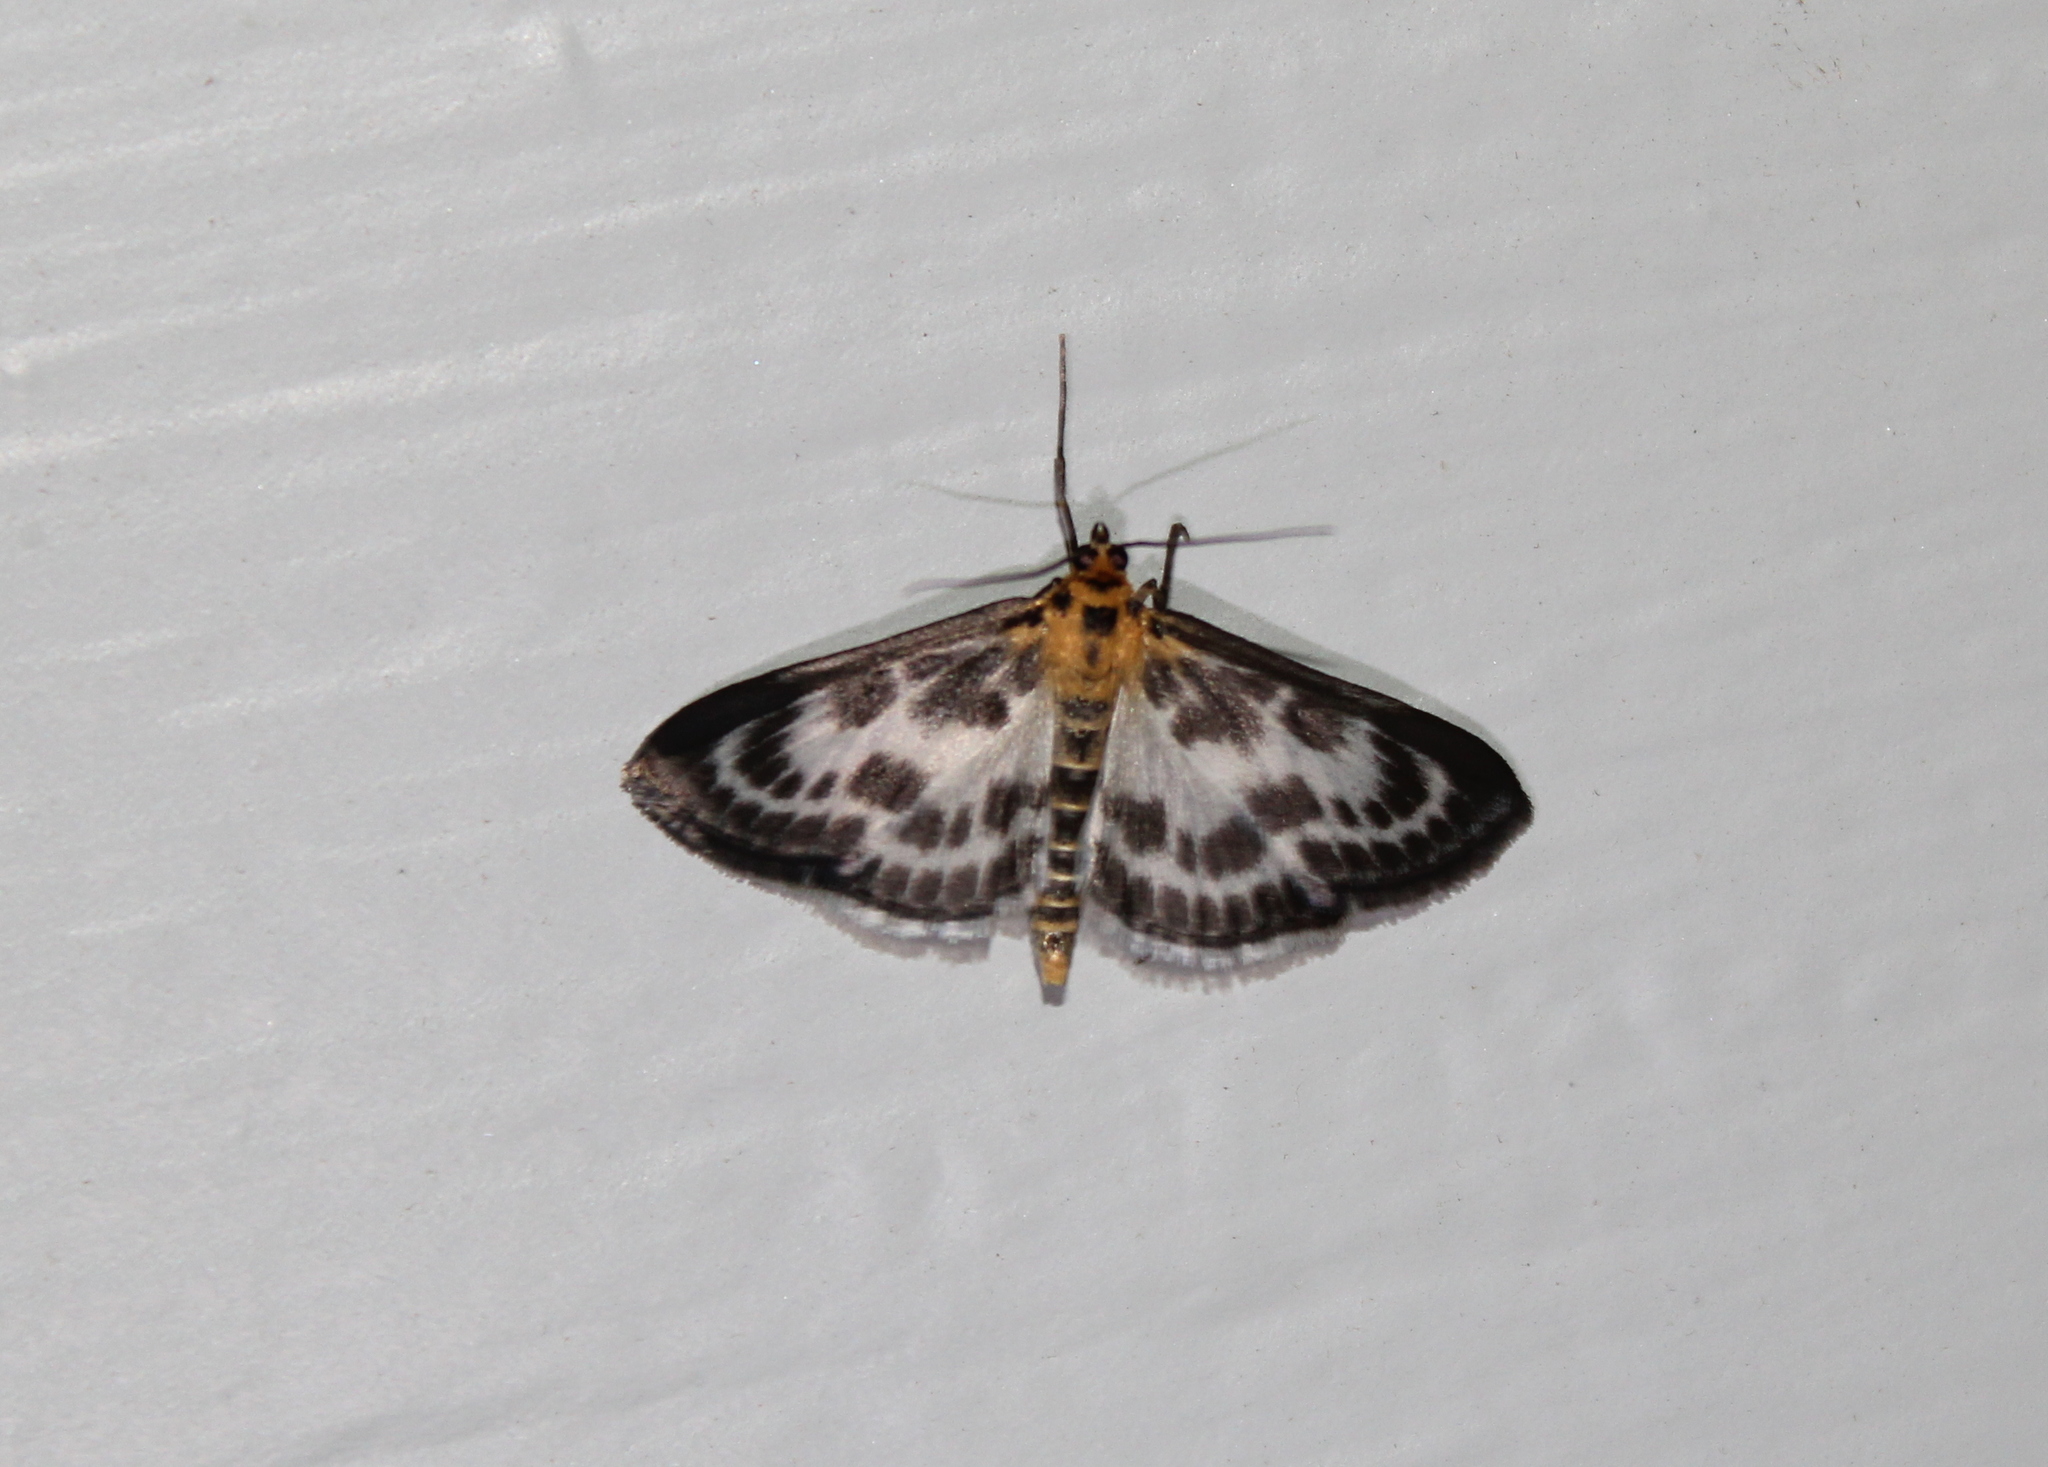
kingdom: Animalia
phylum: Arthropoda
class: Insecta
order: Lepidoptera
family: Crambidae
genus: Anania
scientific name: Anania hortulata
